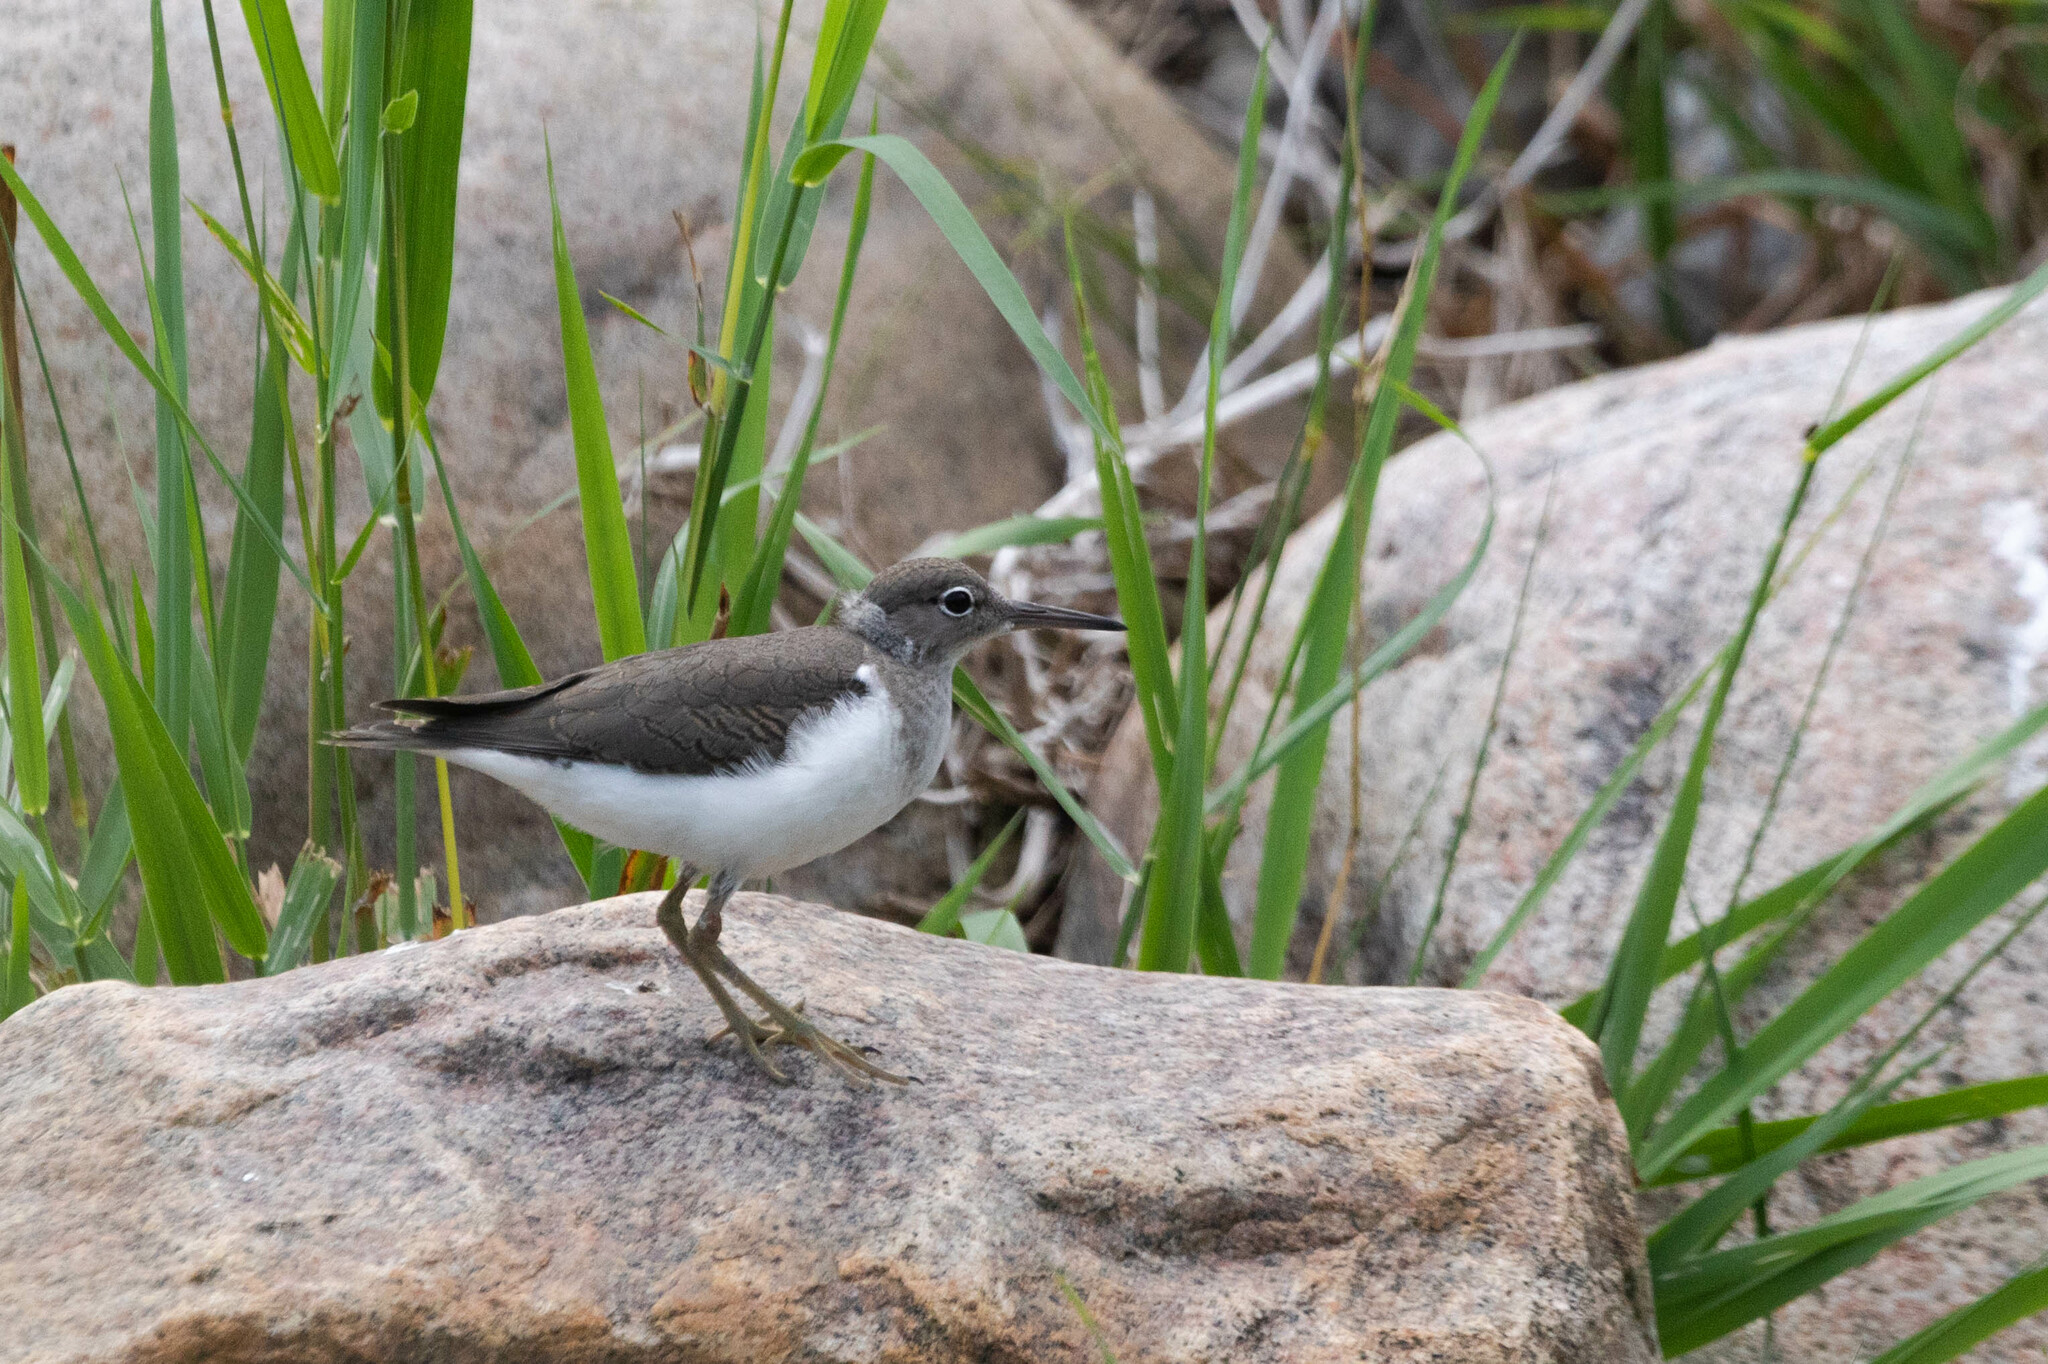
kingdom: Animalia
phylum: Chordata
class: Aves
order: Charadriiformes
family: Scolopacidae
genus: Actitis
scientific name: Actitis macularius
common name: Spotted sandpiper
